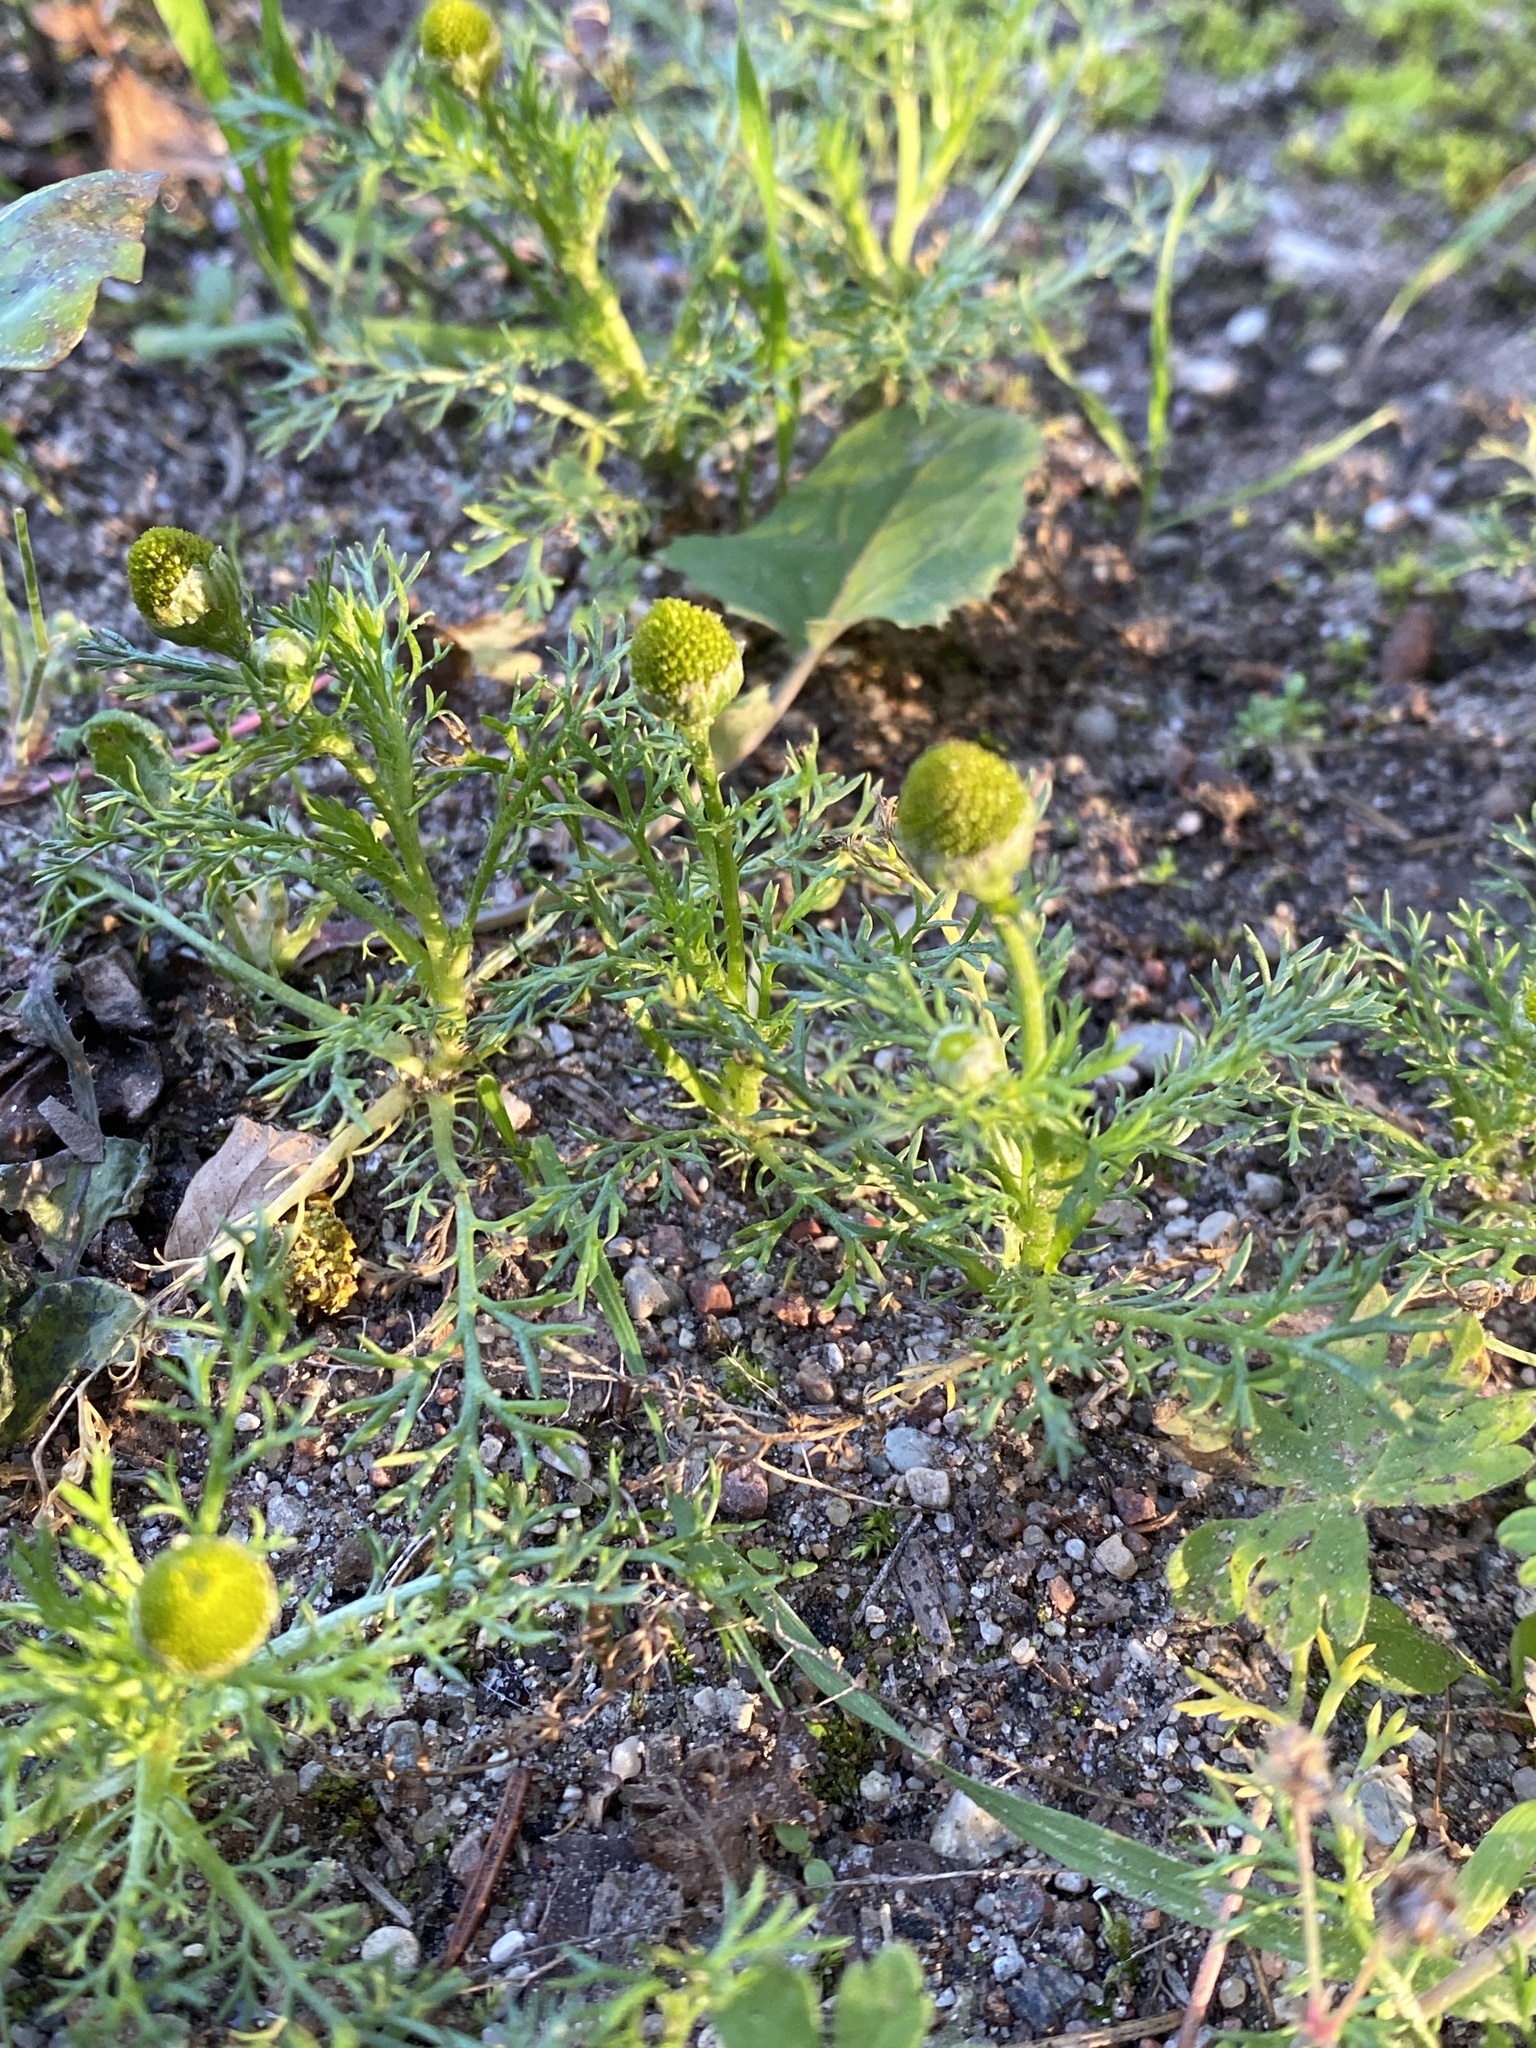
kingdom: Plantae
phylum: Tracheophyta
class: Magnoliopsida
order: Asterales
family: Asteraceae
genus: Matricaria
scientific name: Matricaria discoidea
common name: Disc mayweed
